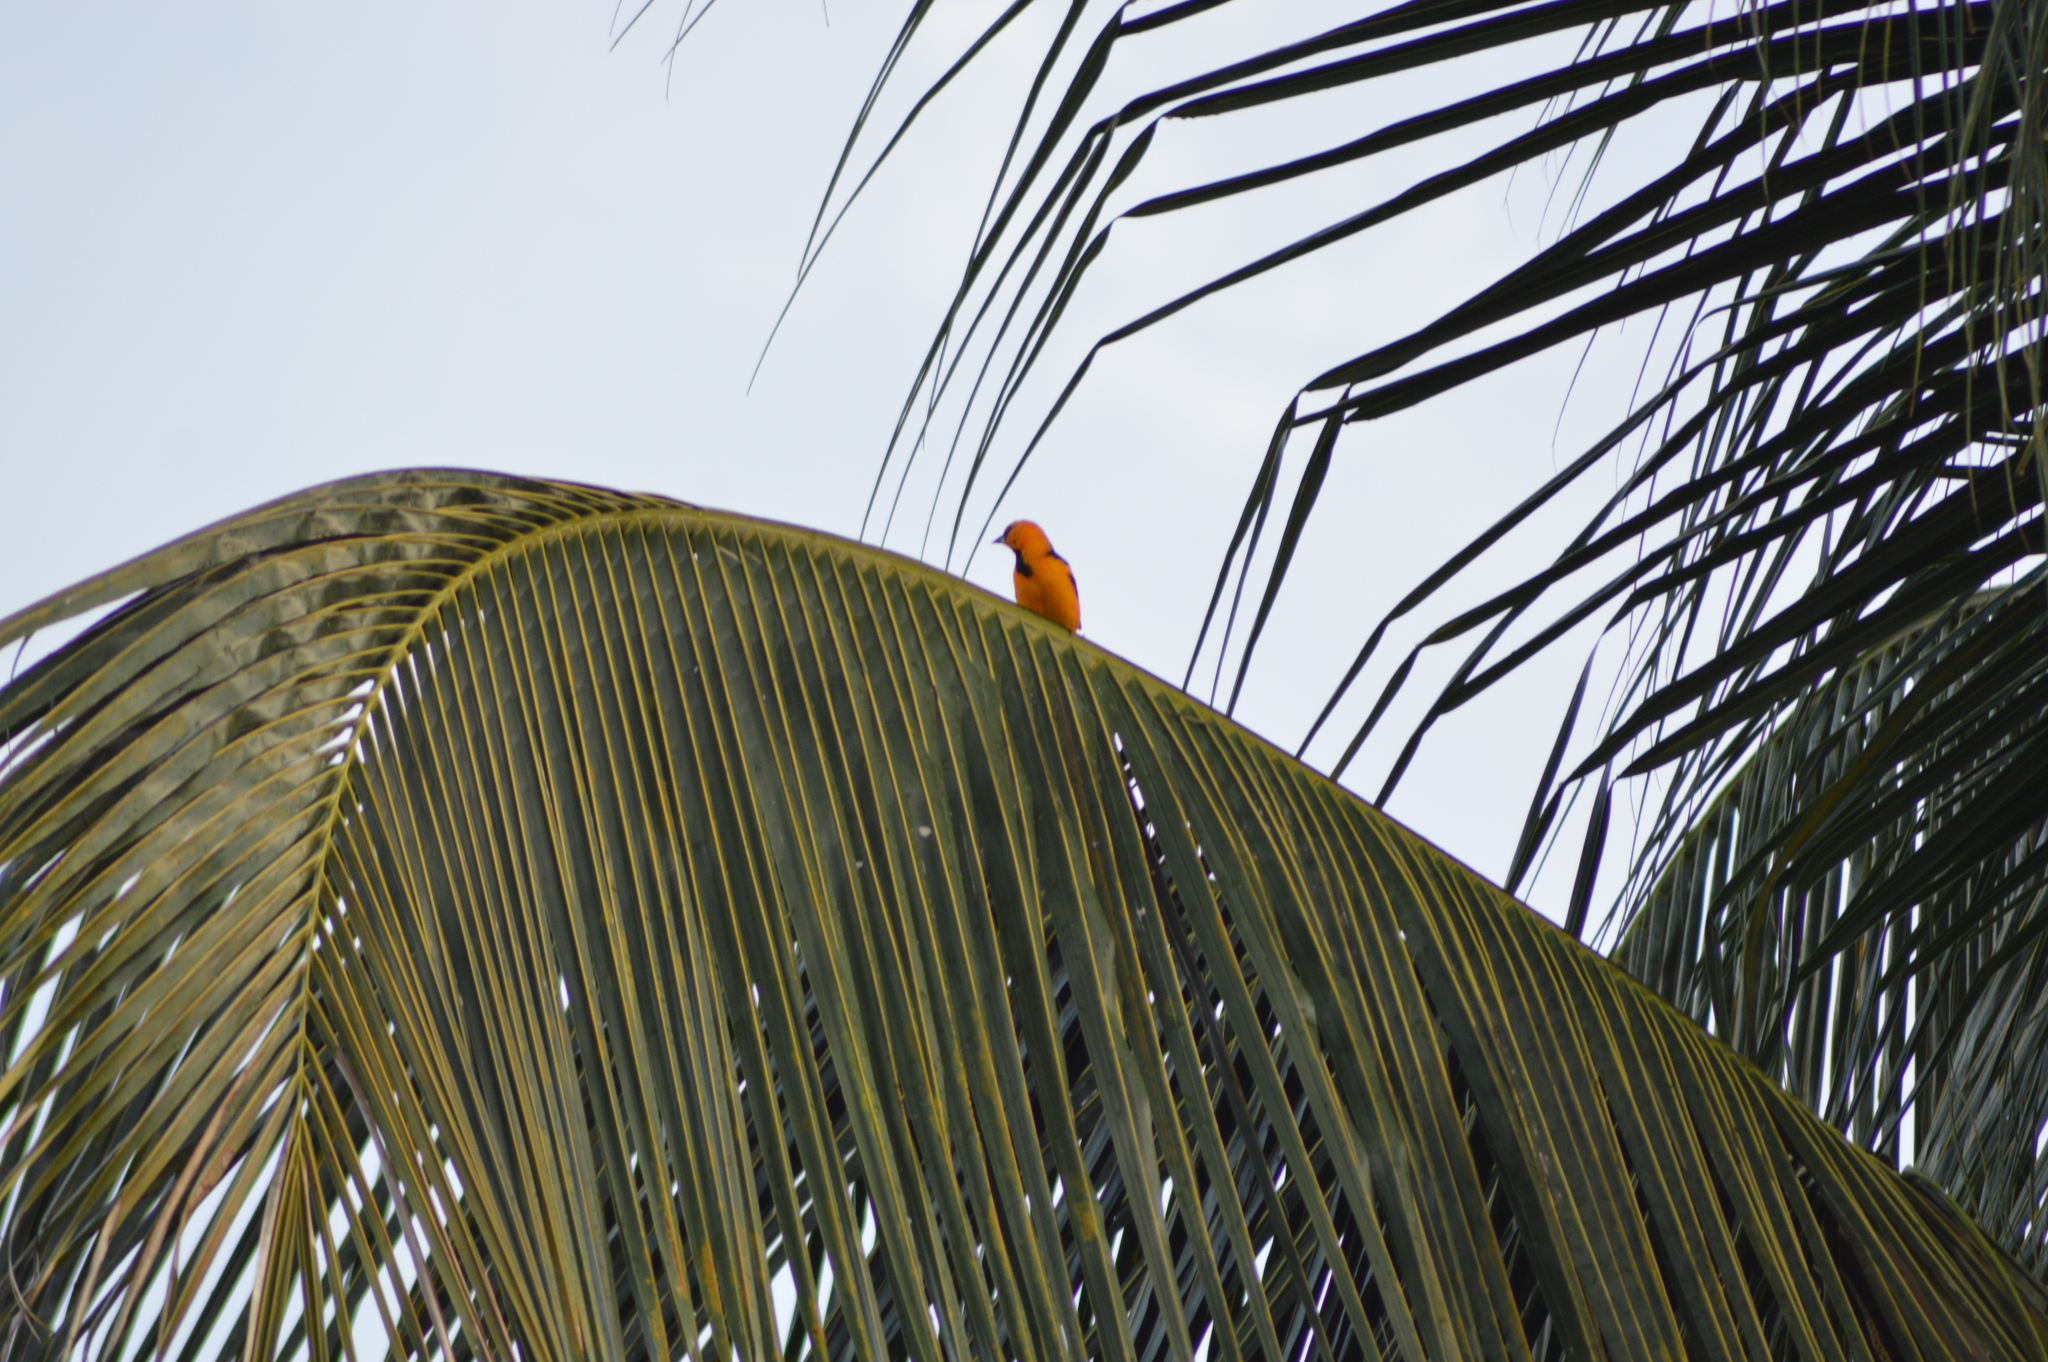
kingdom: Animalia
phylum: Chordata
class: Aves
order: Passeriformes
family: Icteridae
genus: Icterus
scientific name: Icterus gularis
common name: Altamira oriole
